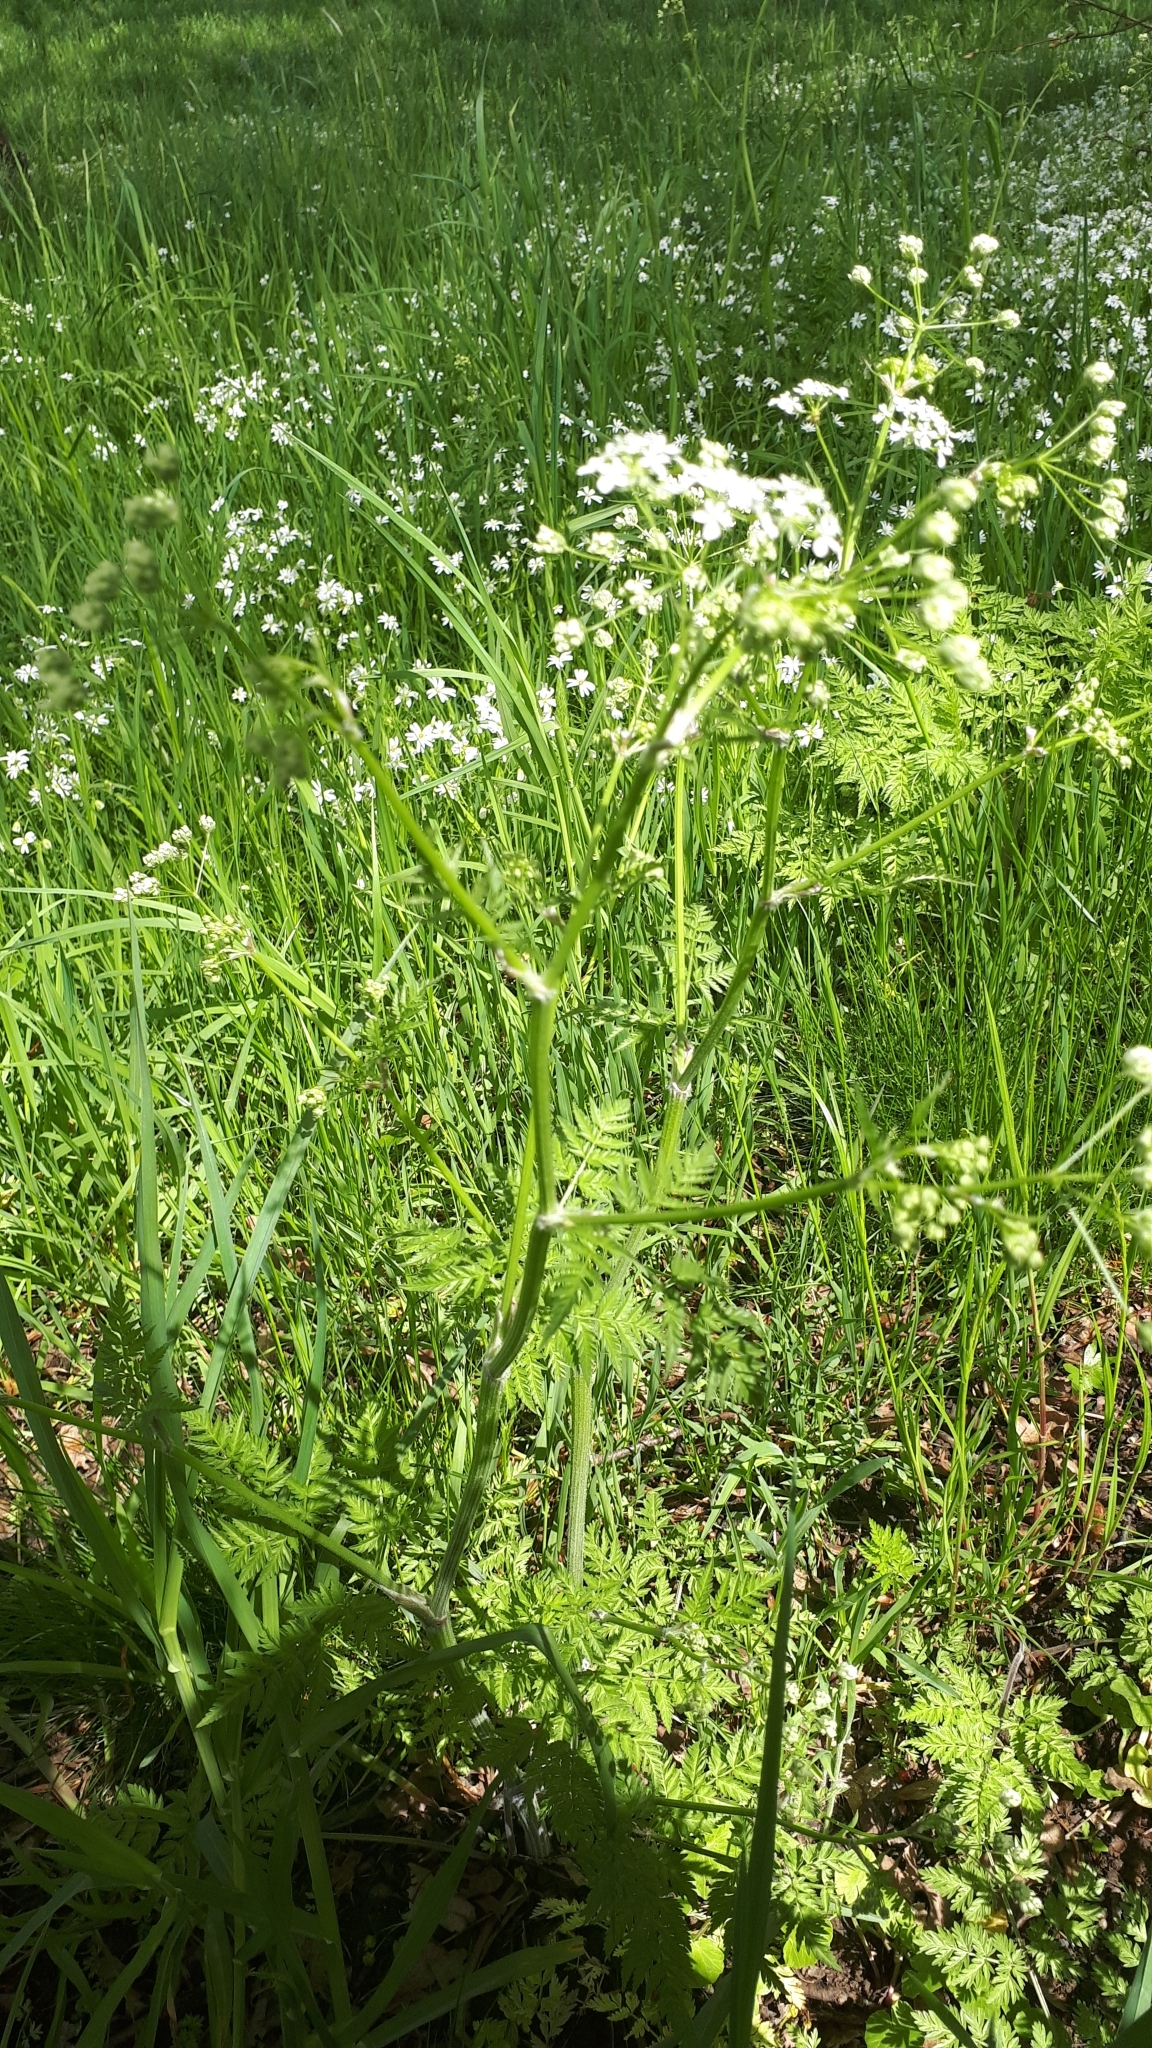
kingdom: Plantae
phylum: Tracheophyta
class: Magnoliopsida
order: Apiales
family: Apiaceae
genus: Anthriscus
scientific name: Anthriscus sylvestris
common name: Cow parsley
